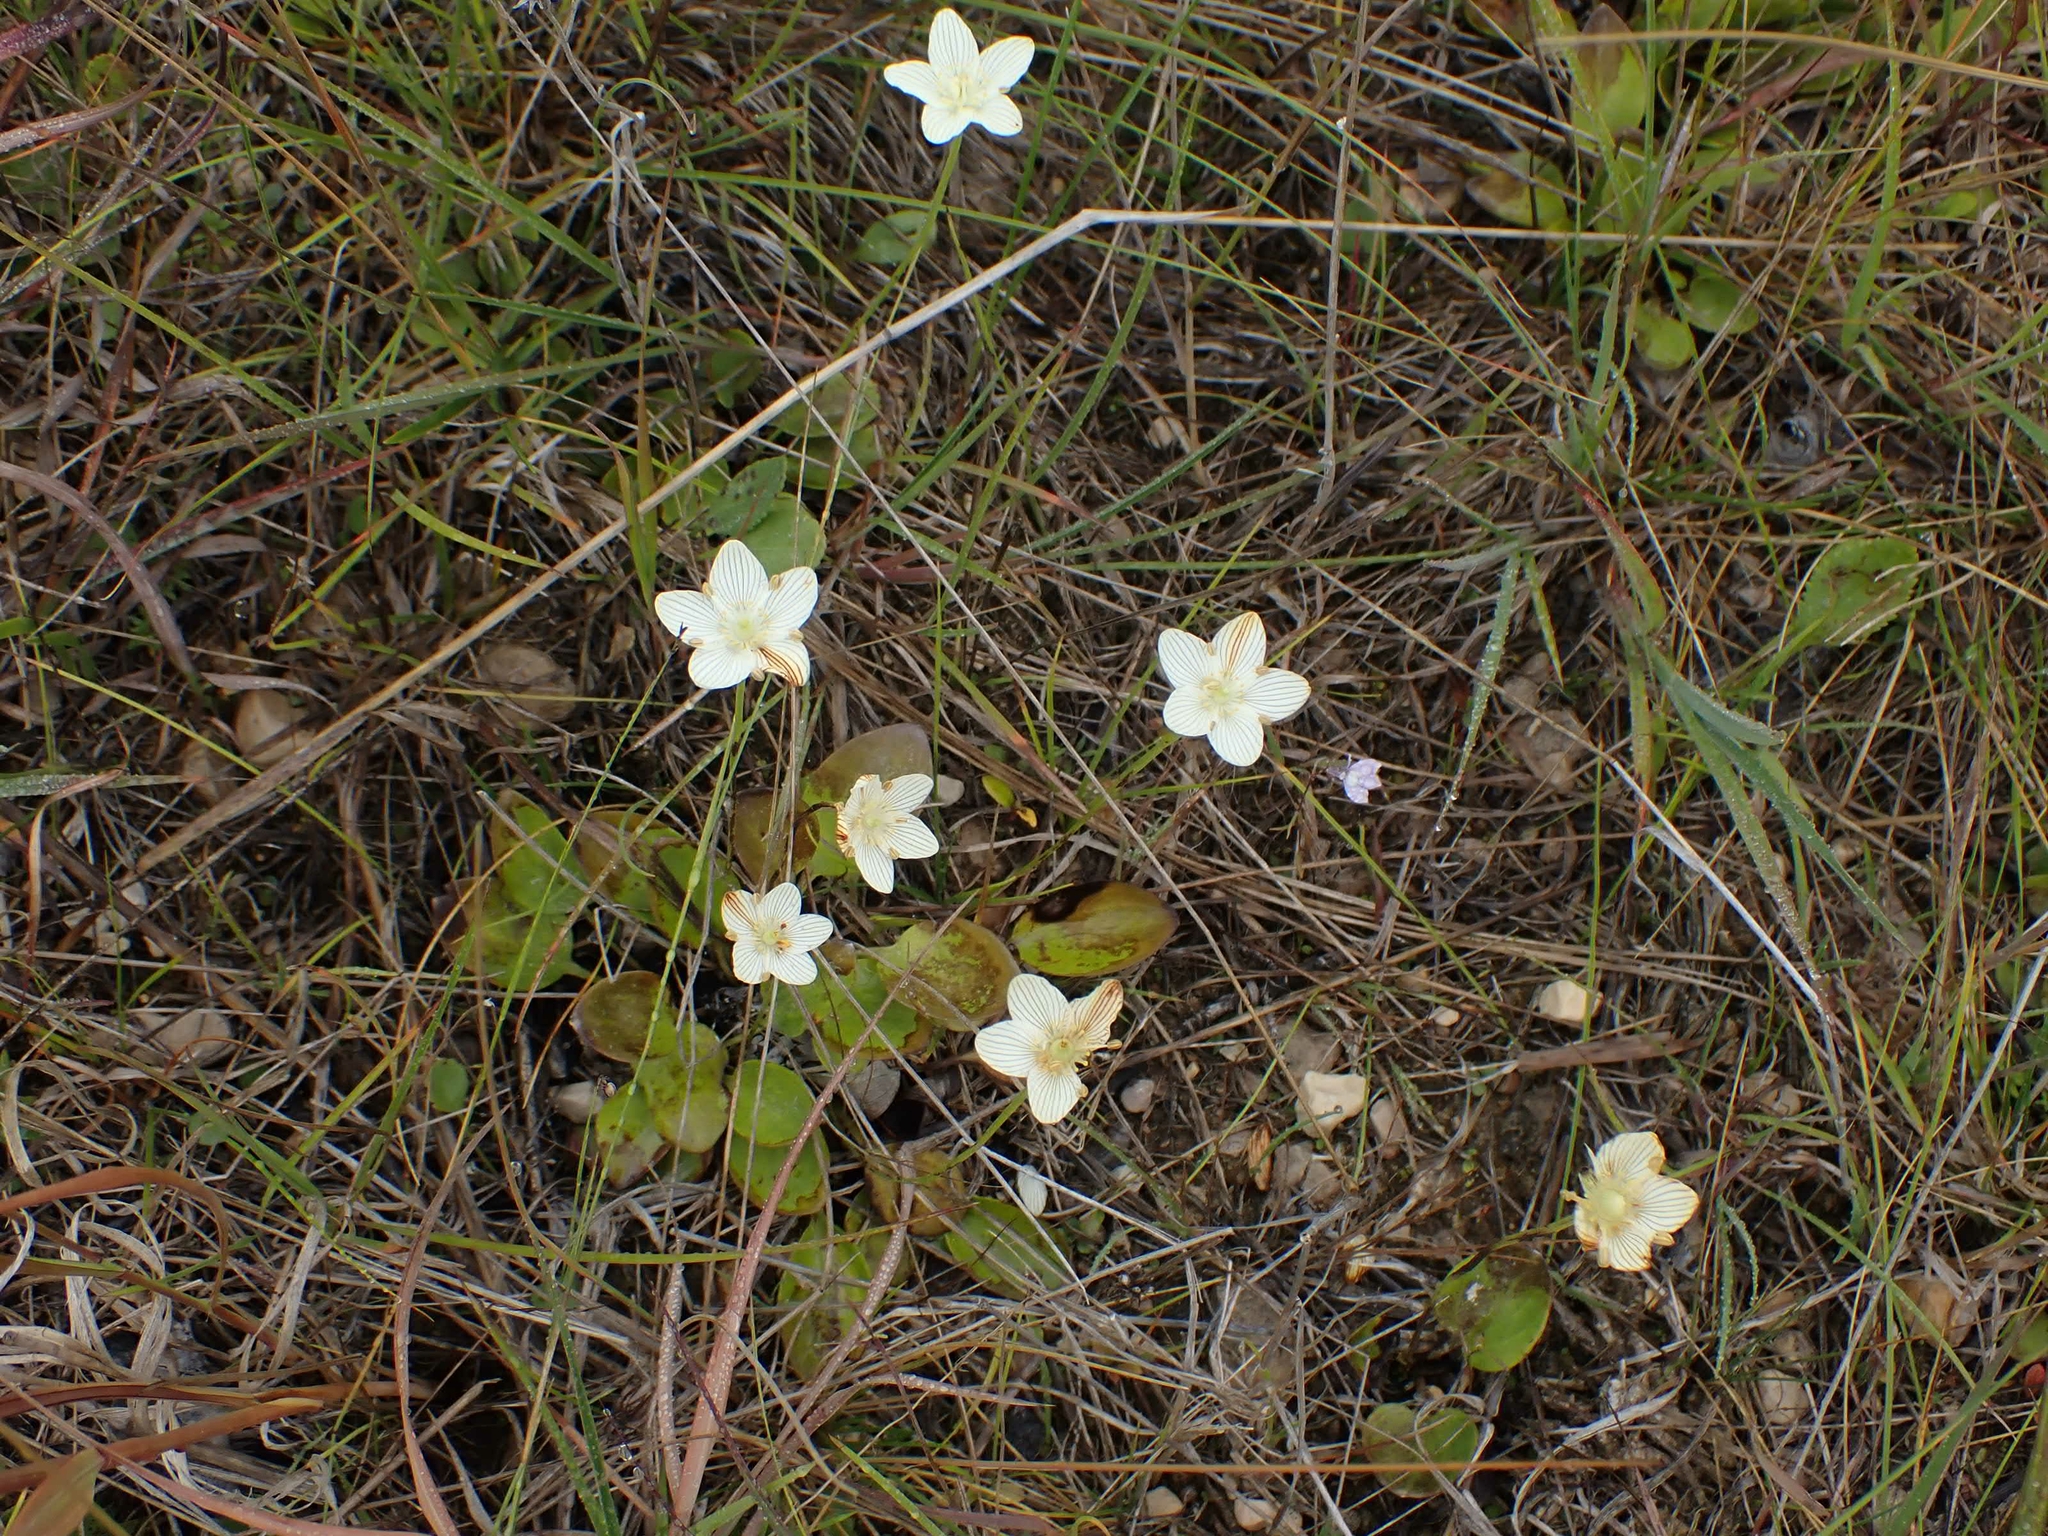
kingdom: Plantae
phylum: Tracheophyta
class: Magnoliopsida
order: Celastrales
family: Parnassiaceae
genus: Parnassia
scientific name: Parnassia glauca
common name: American grass-of-parnassus
